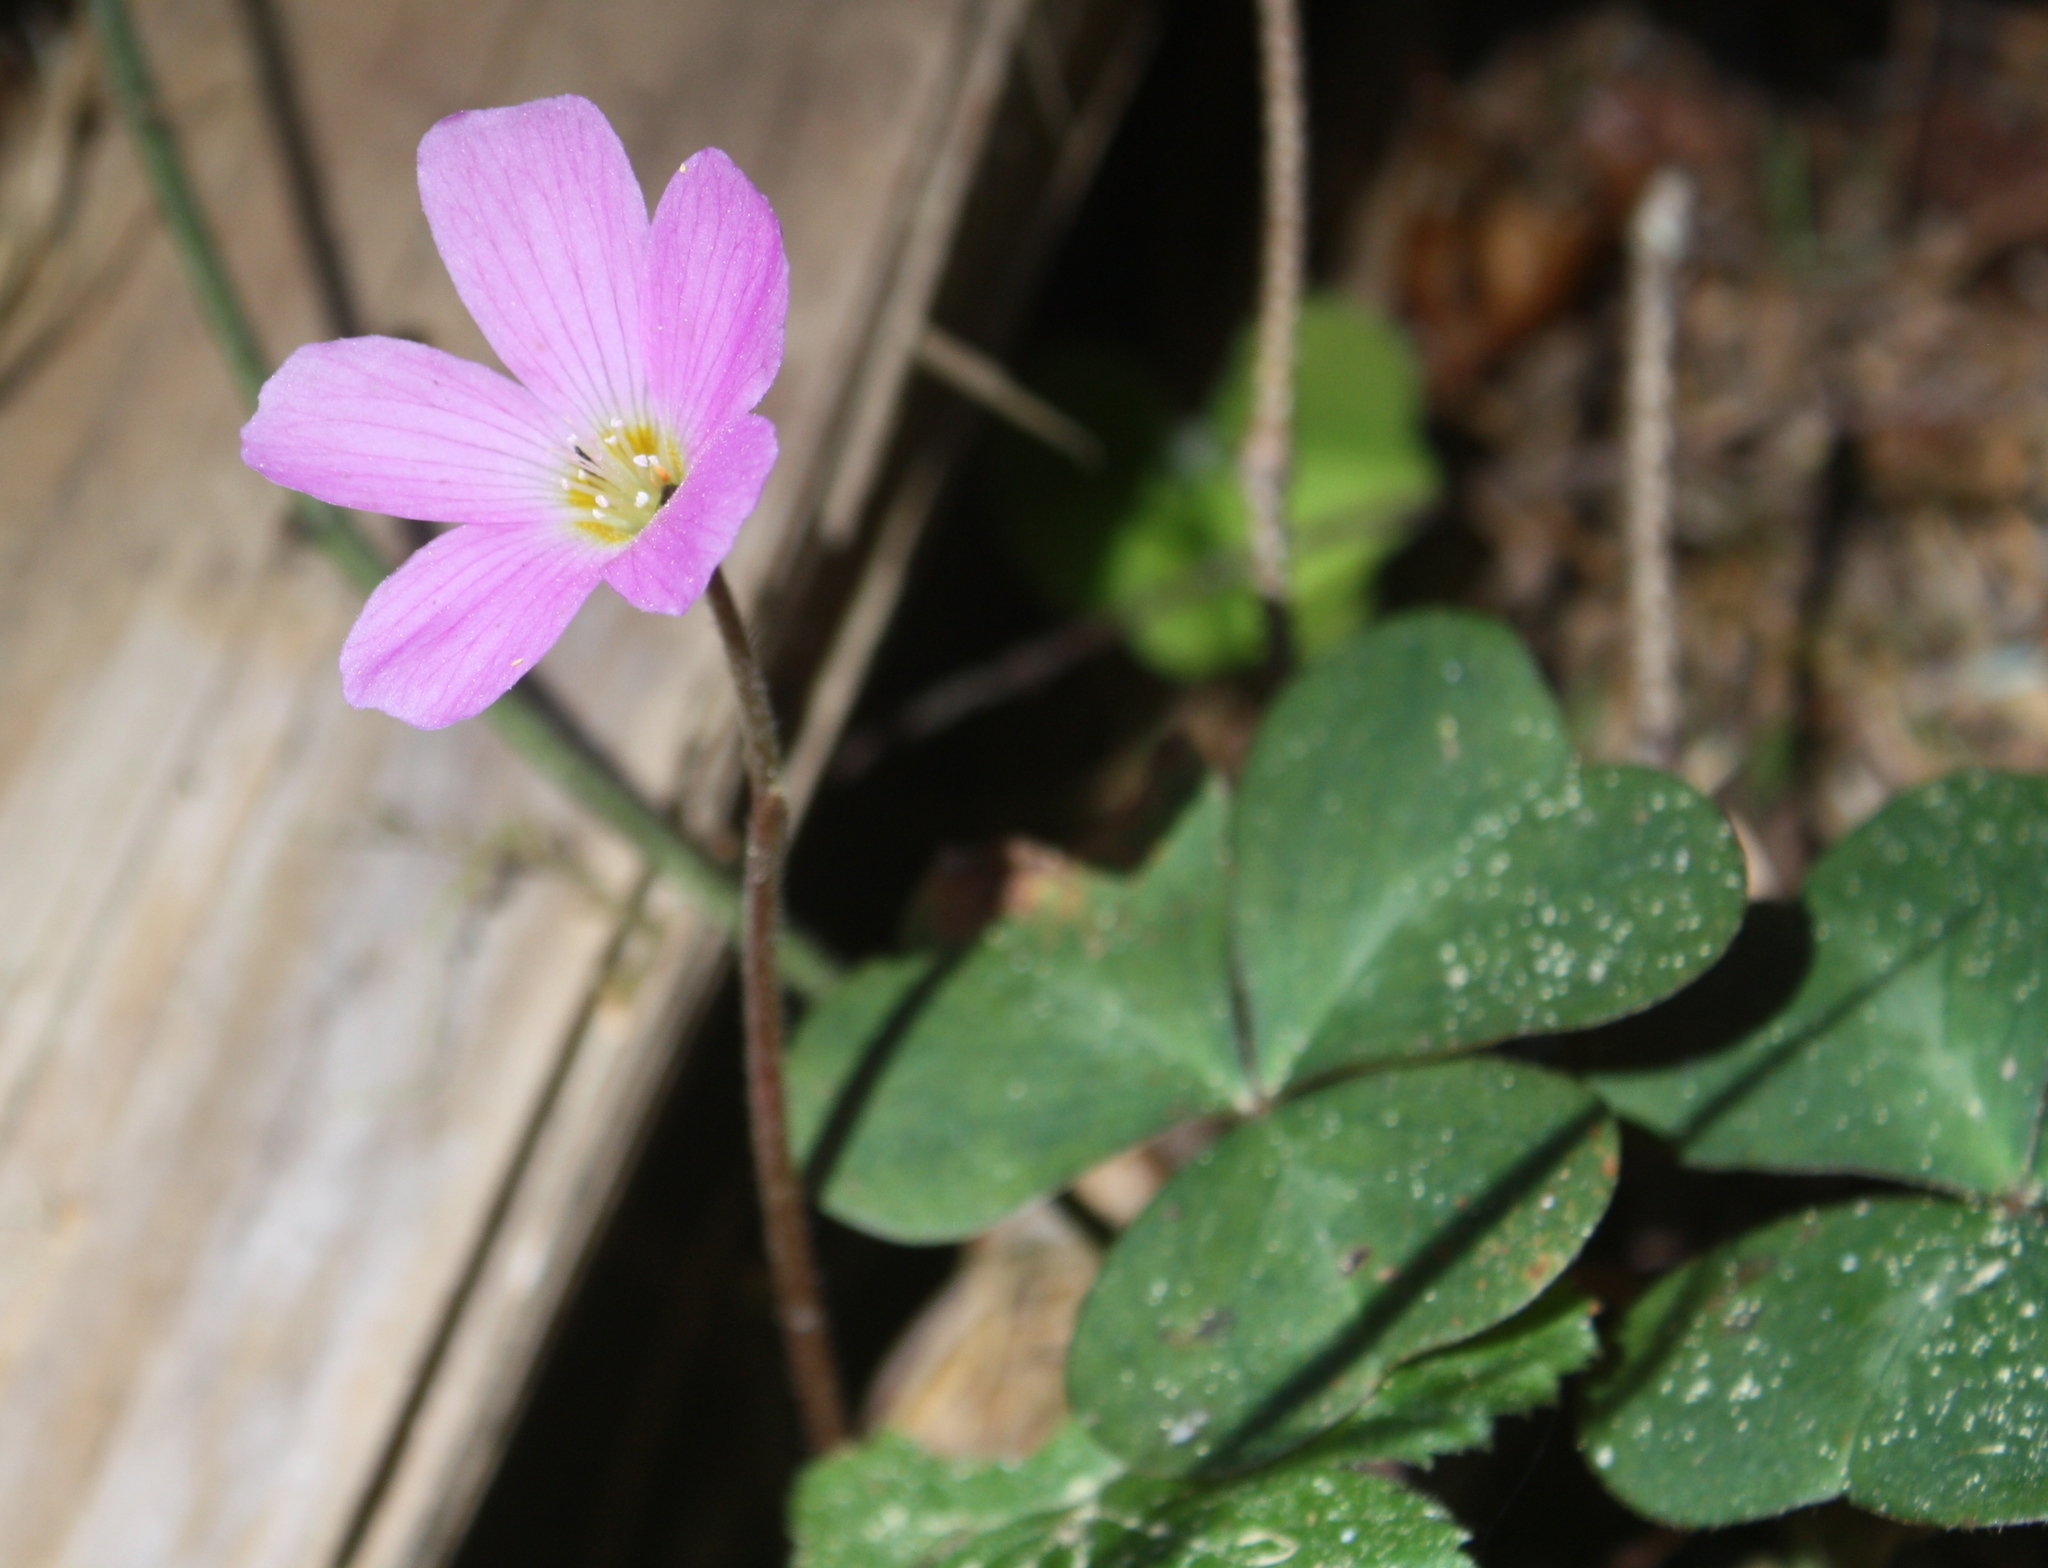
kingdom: Plantae
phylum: Tracheophyta
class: Magnoliopsida
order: Oxalidales
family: Oxalidaceae
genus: Oxalis
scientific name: Oxalis oregana
